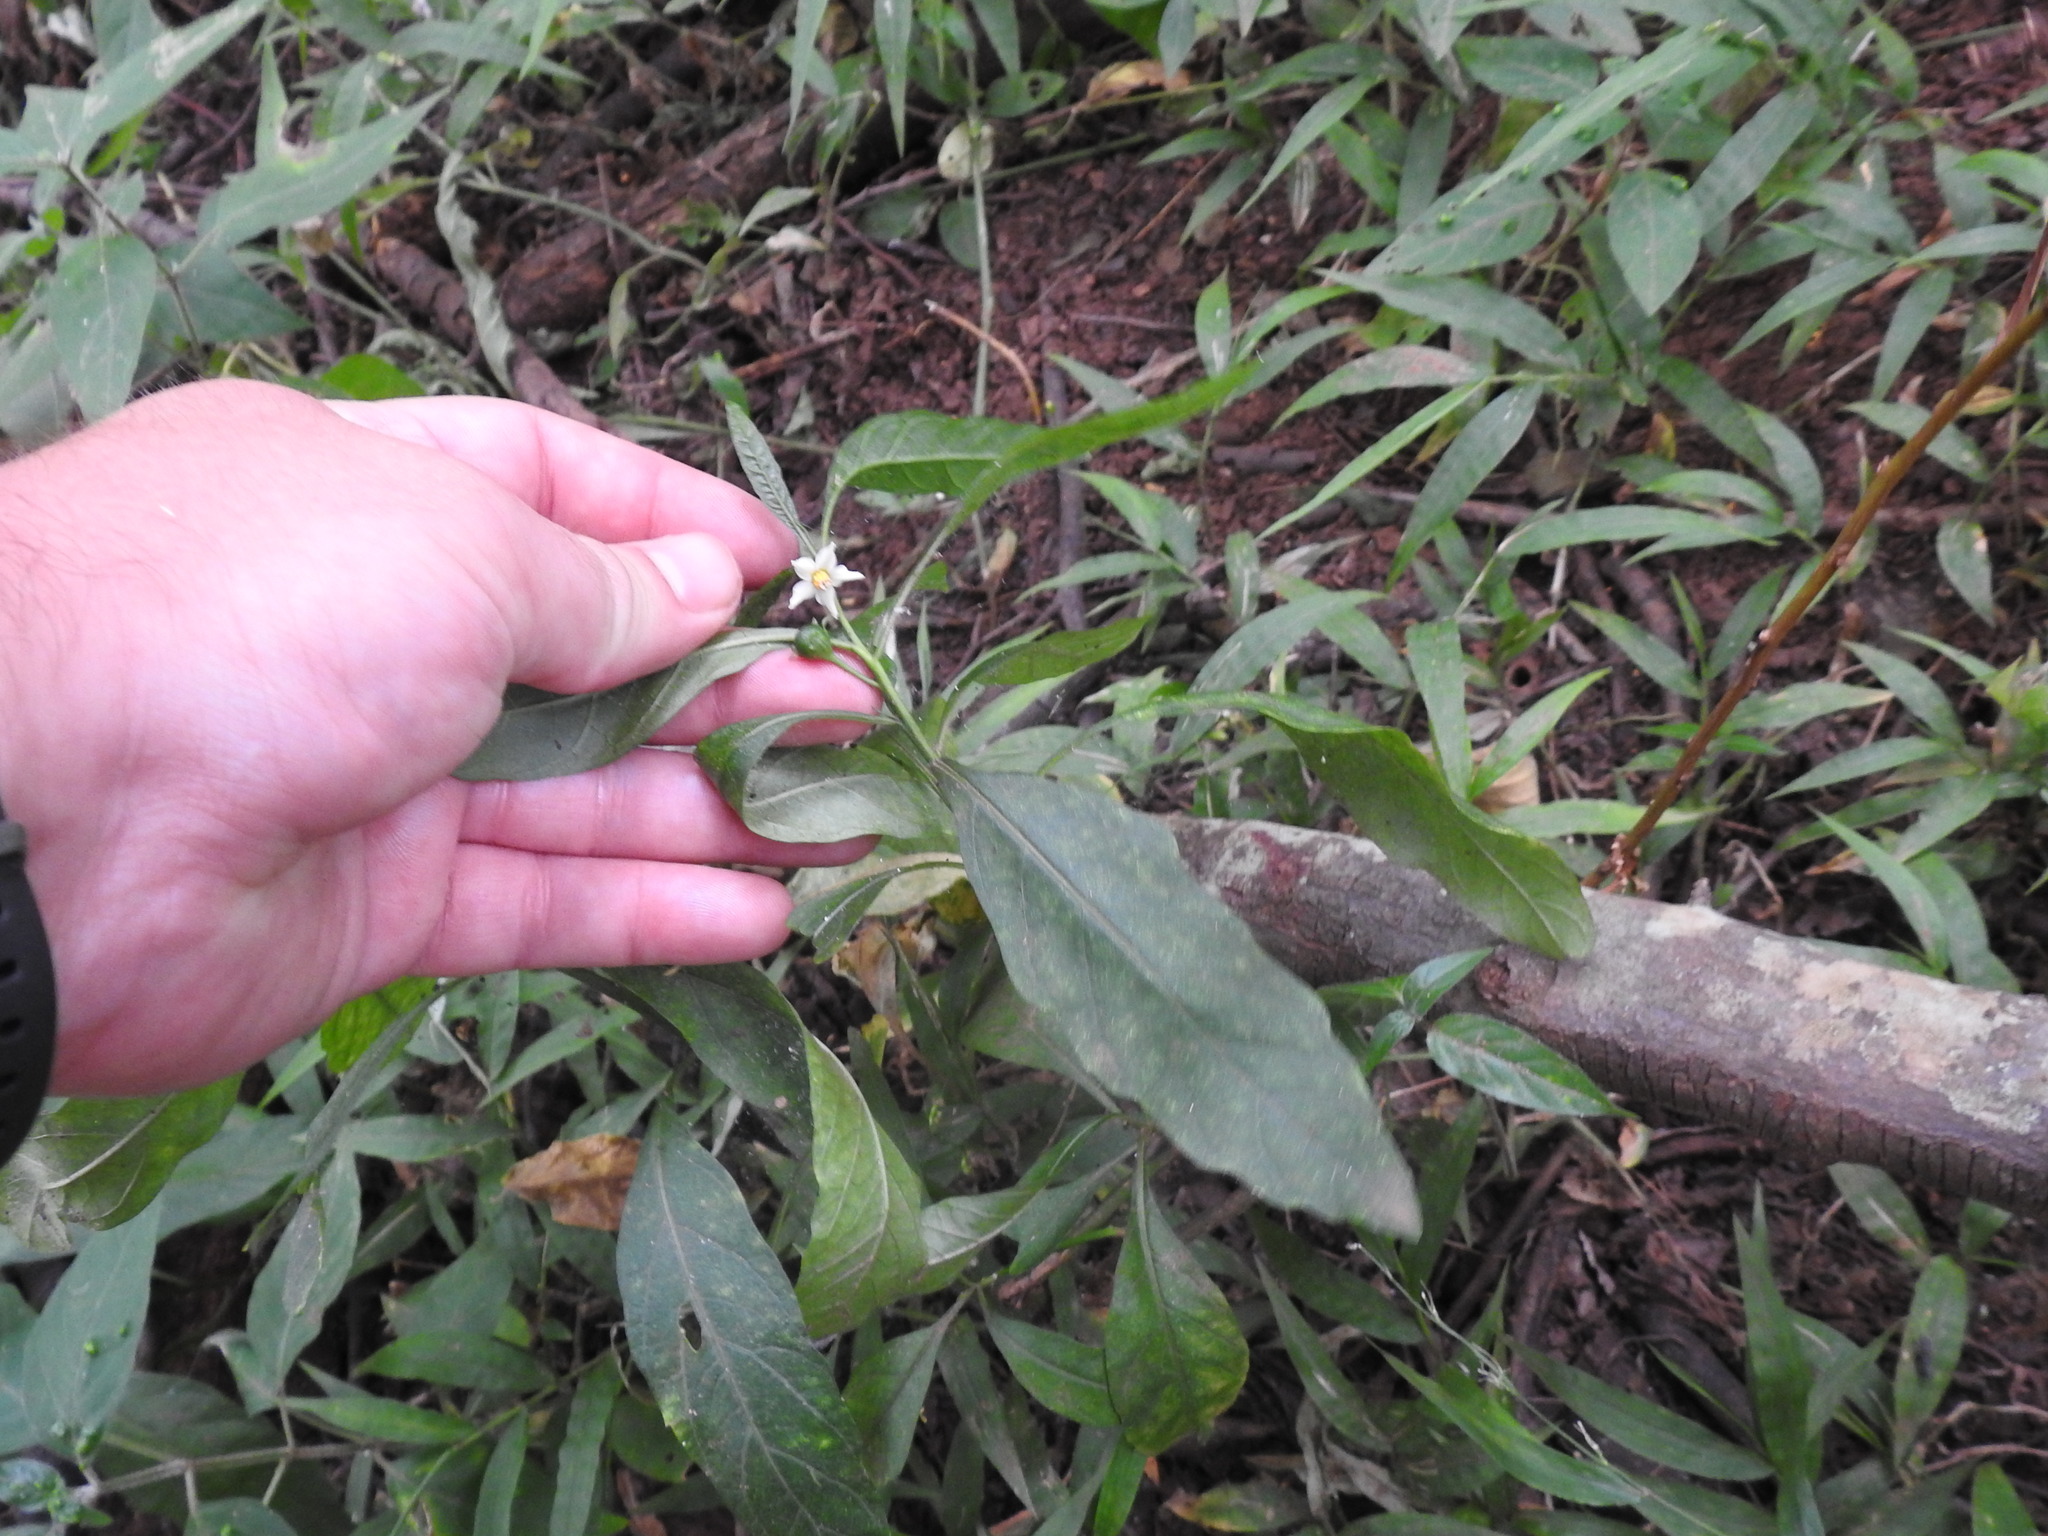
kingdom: Plantae
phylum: Tracheophyta
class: Magnoliopsida
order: Solanales
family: Solanaceae
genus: Solanum
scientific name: Solanum pseudocapsicum
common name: Jerusalem cherry
